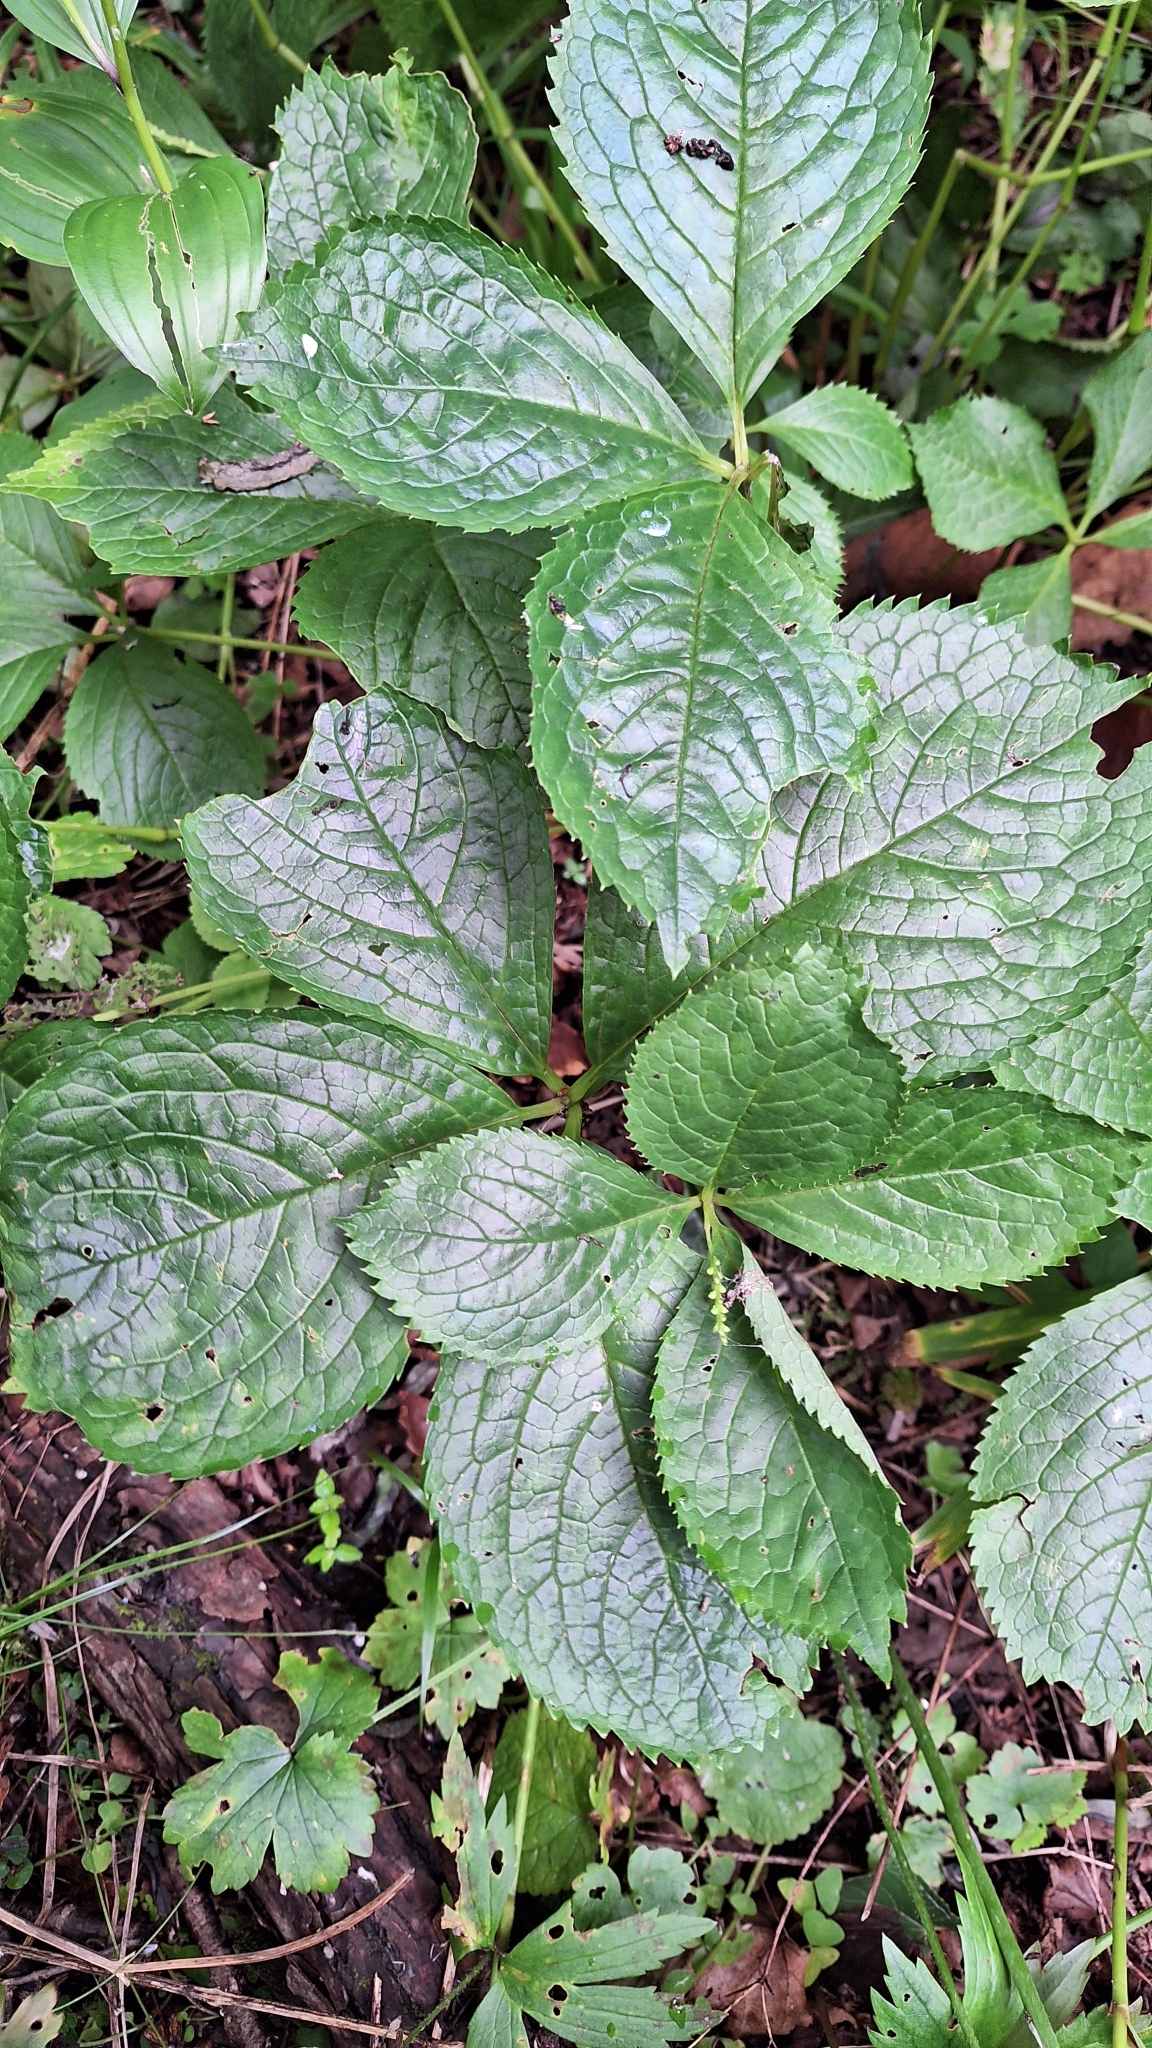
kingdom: Plantae
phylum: Tracheophyta
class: Magnoliopsida
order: Chloranthales
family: Chloranthaceae
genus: Chloranthus
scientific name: Chloranthus quadrifolius
